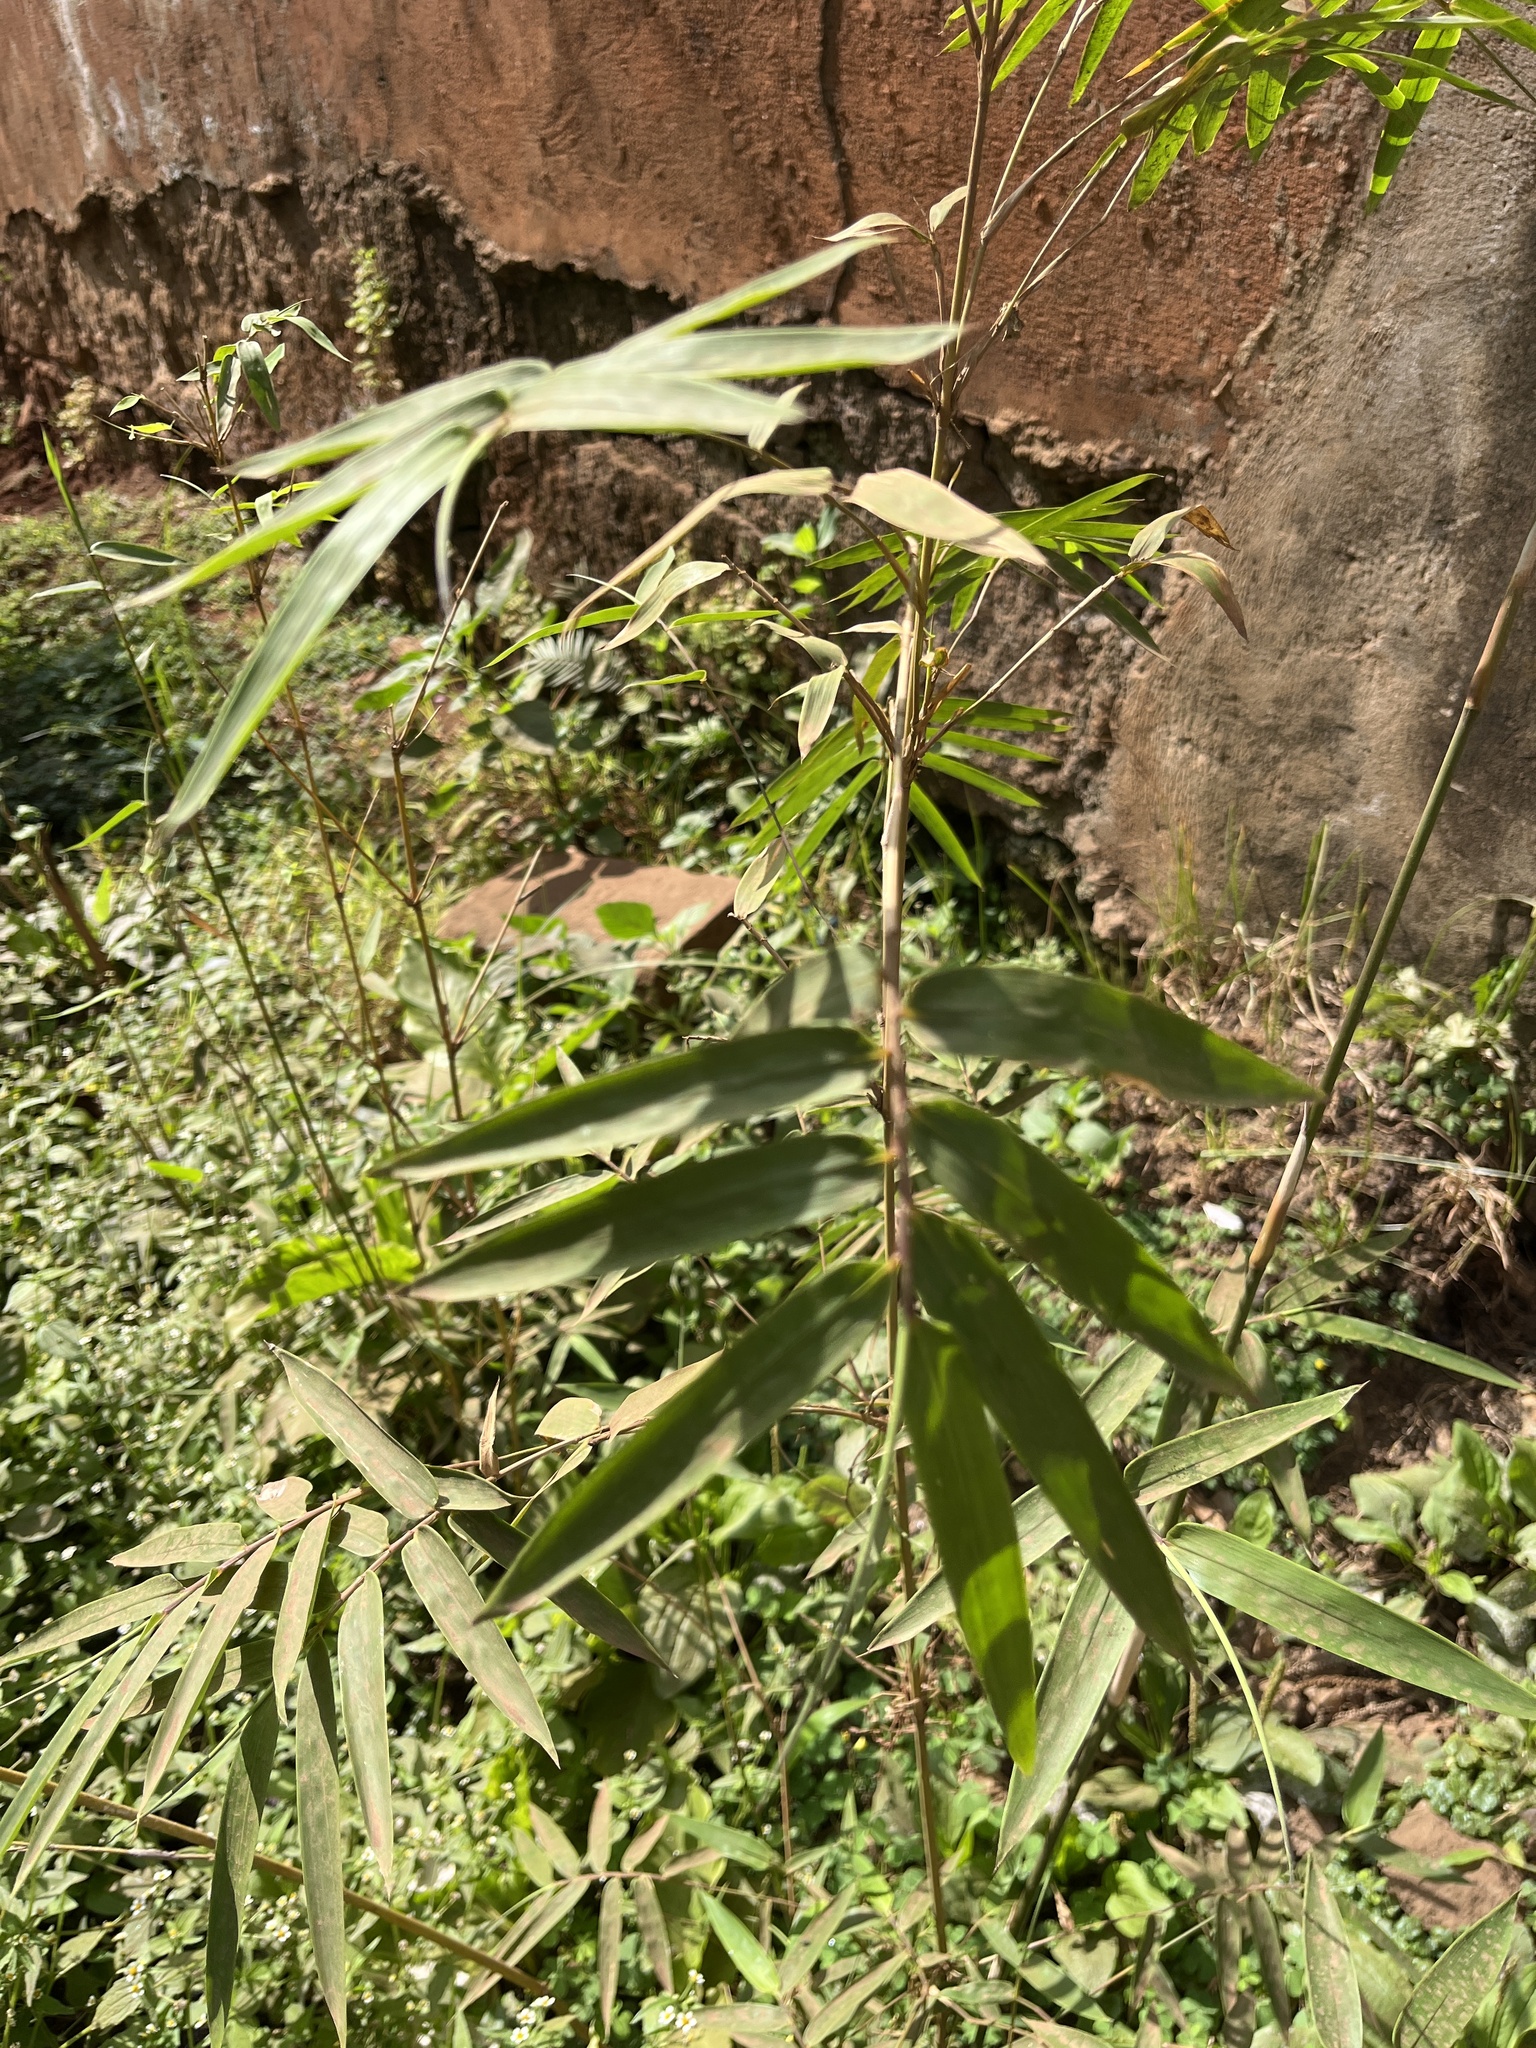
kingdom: Plantae
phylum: Tracheophyta
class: Liliopsida
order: Poales
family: Poaceae
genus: Bambusa
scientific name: Bambusa vulgaris
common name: Common bamboo
